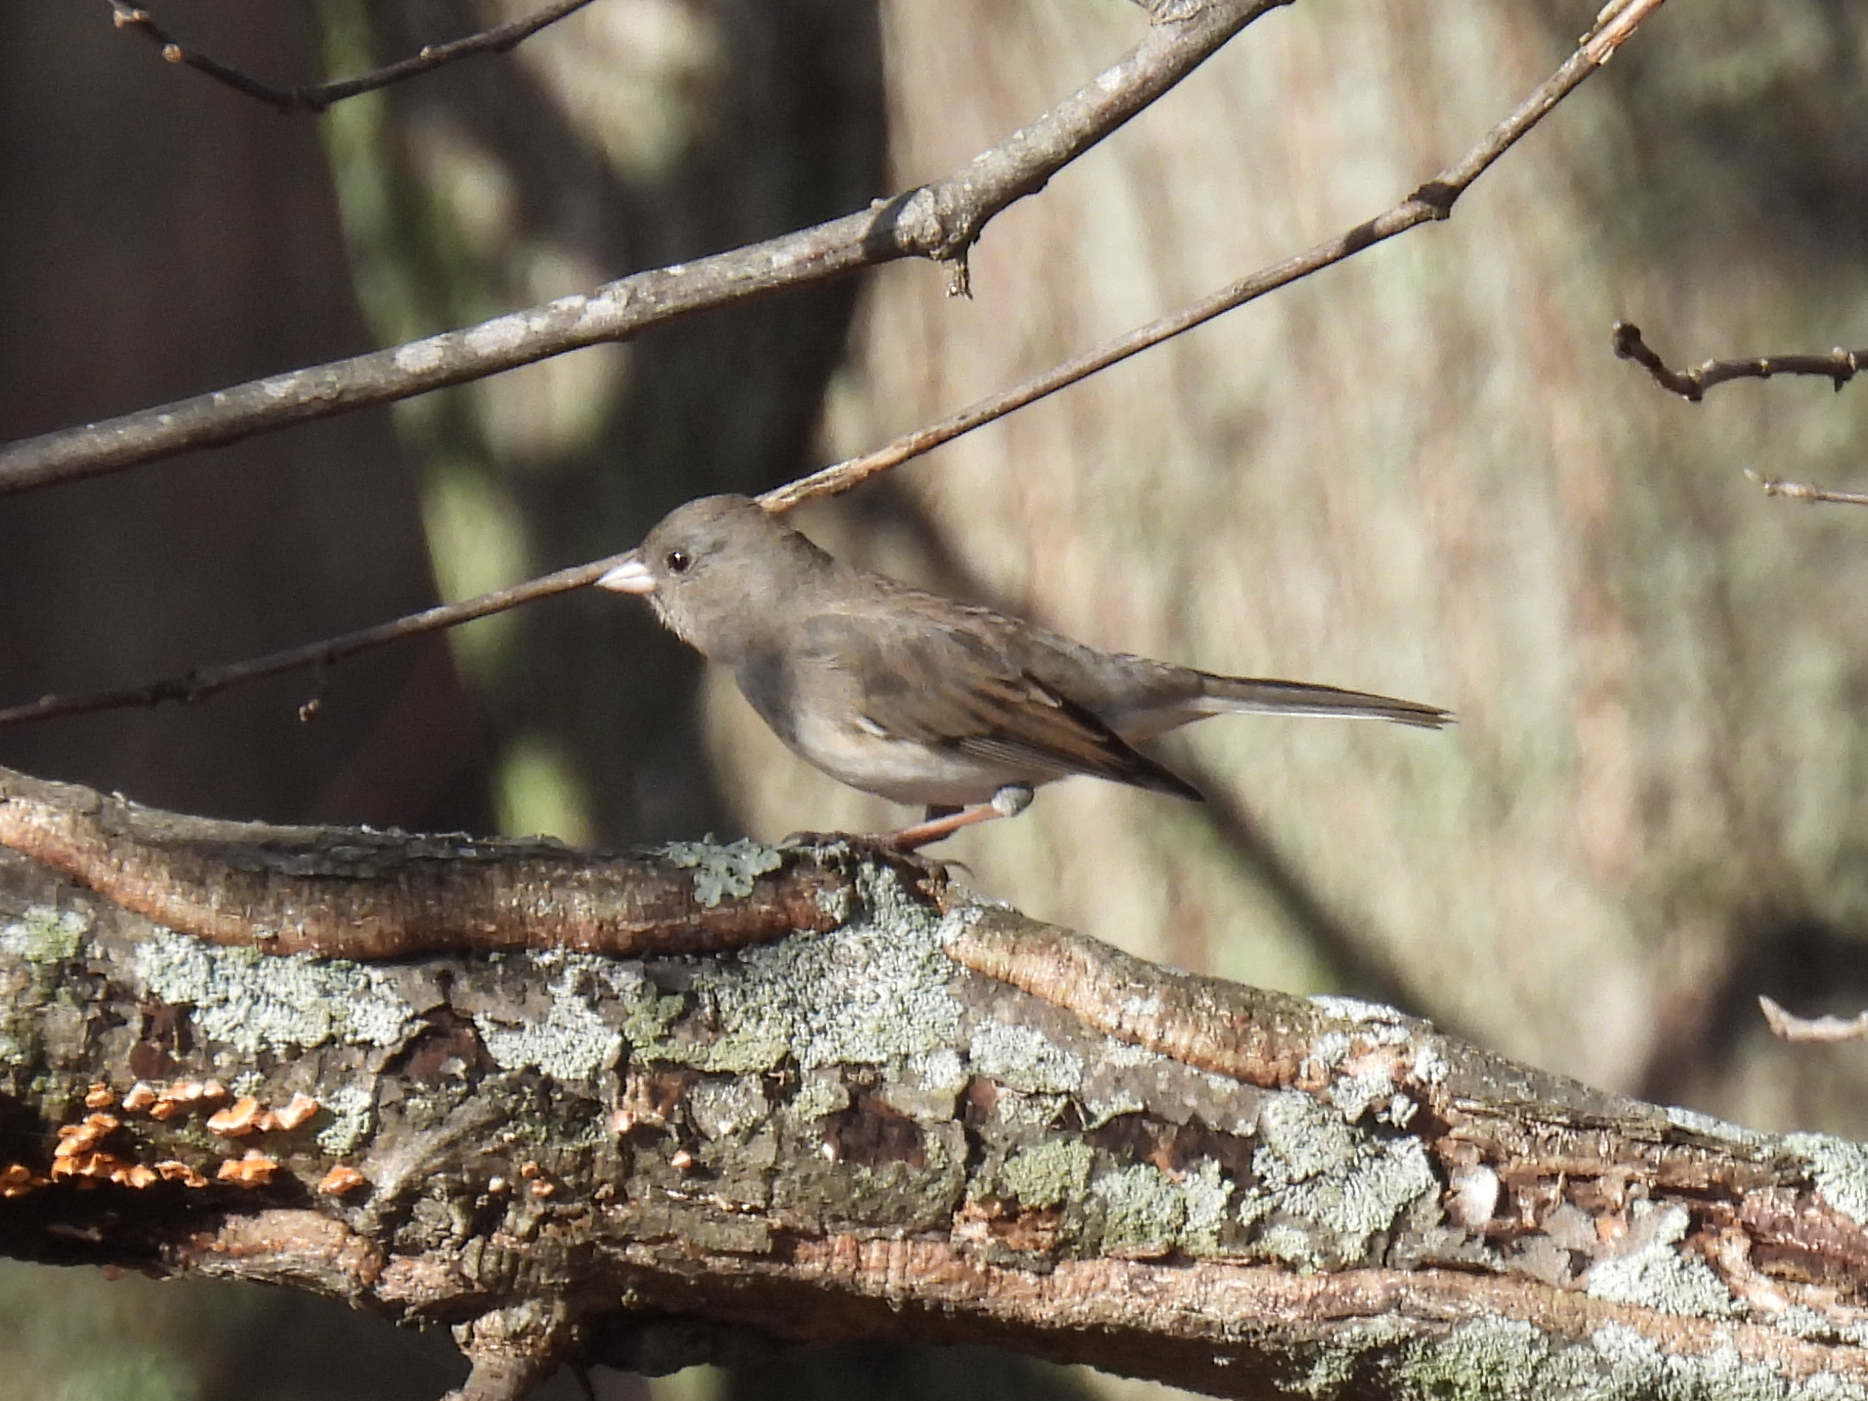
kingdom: Animalia
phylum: Chordata
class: Aves
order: Passeriformes
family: Passerellidae
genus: Junco
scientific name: Junco hyemalis
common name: Dark-eyed junco
